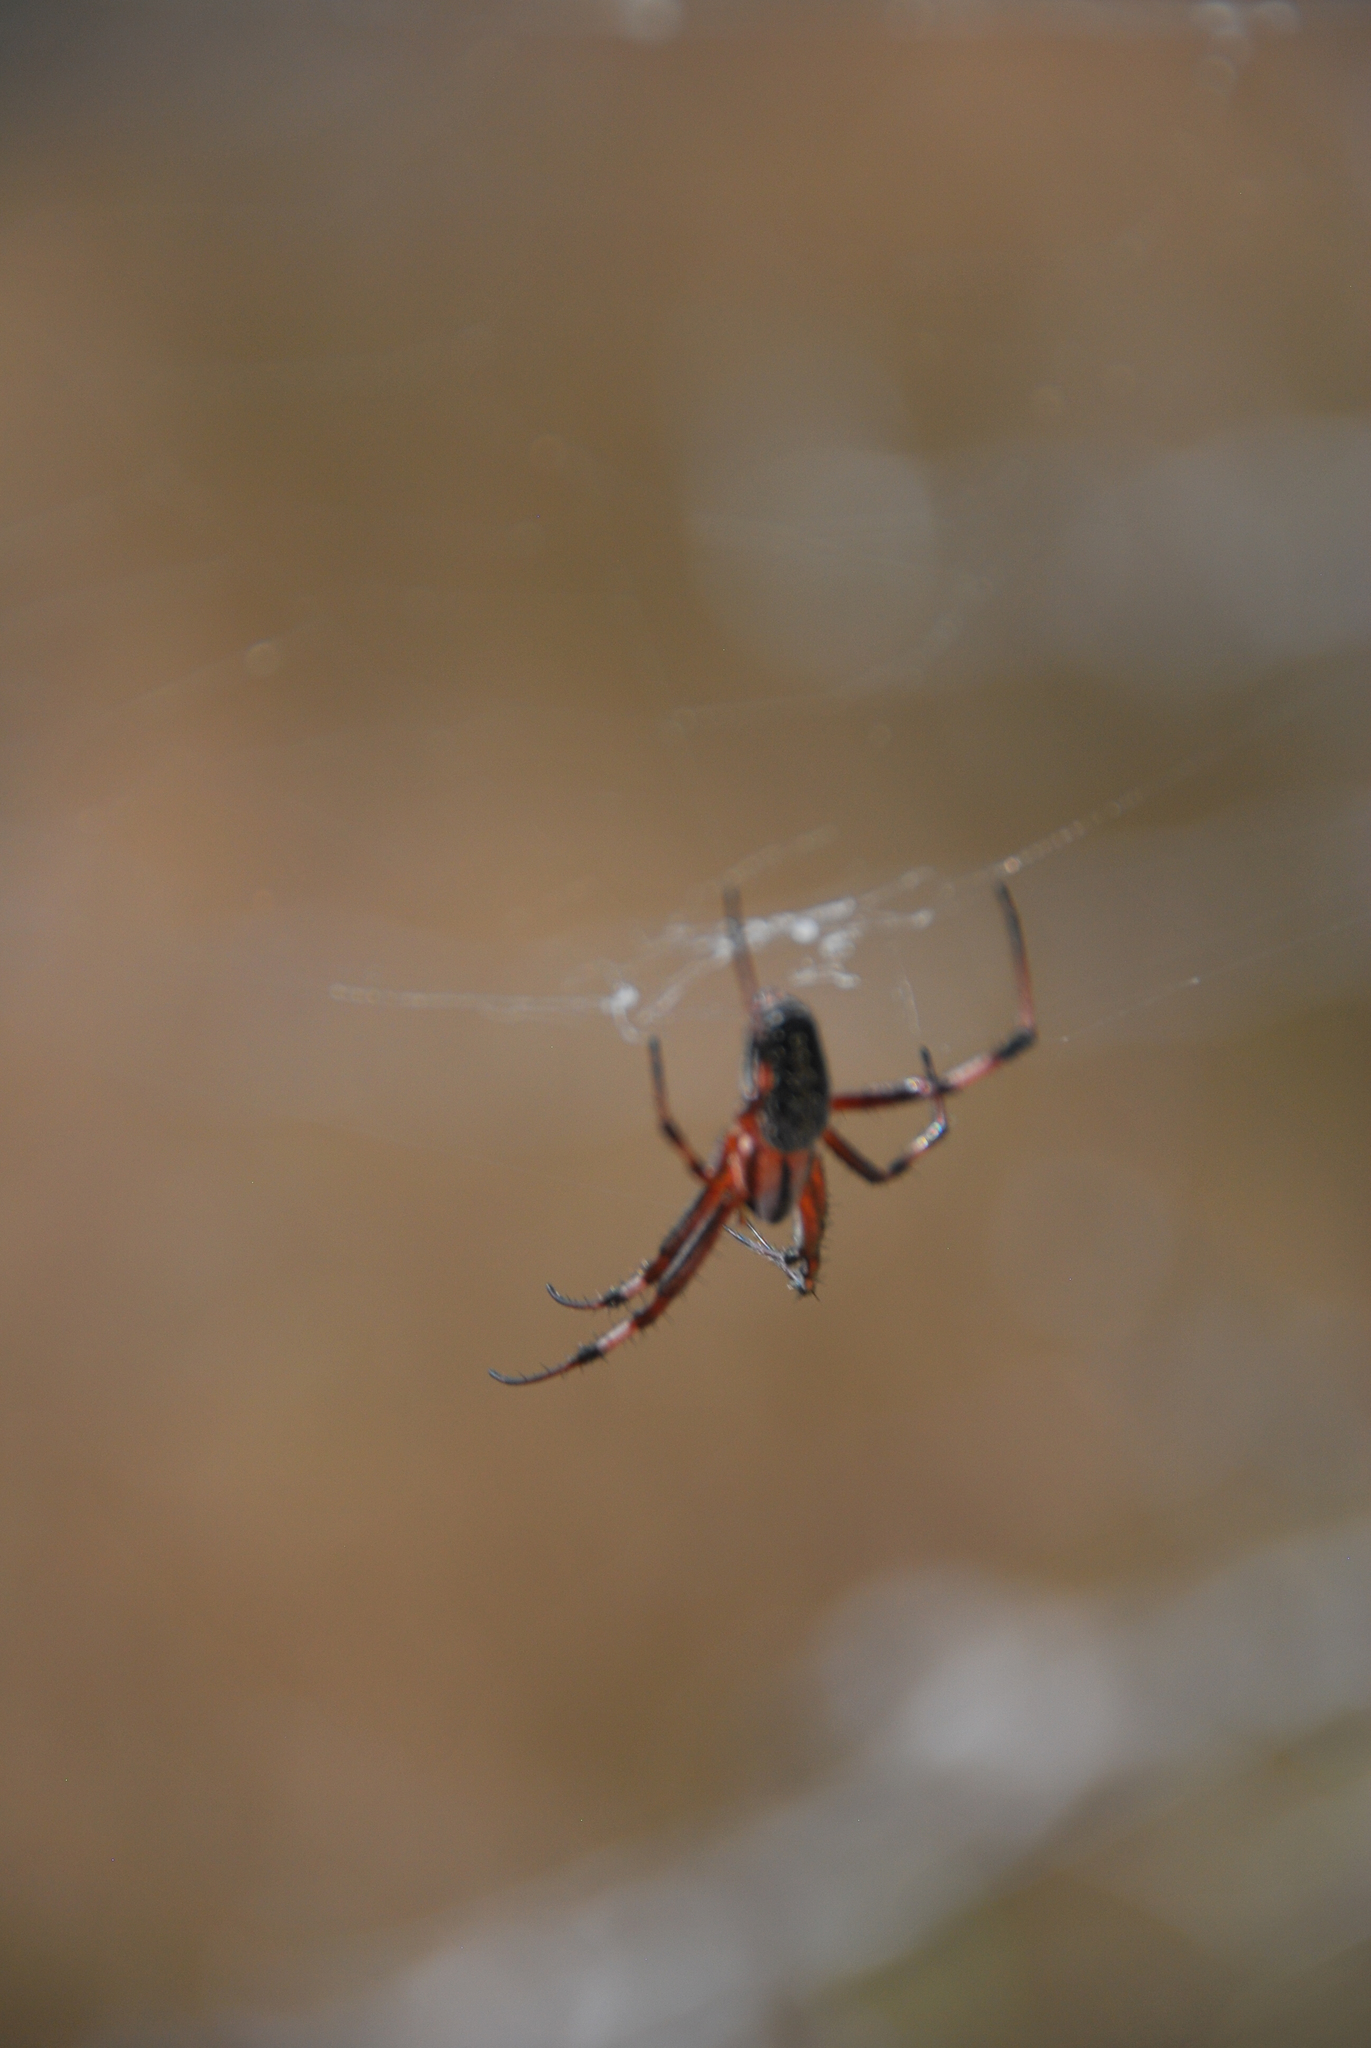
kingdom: Animalia
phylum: Arthropoda
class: Arachnida
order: Araneae
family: Araneidae
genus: Neoscona
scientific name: Neoscona oaxacensis
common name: Orb weavers
